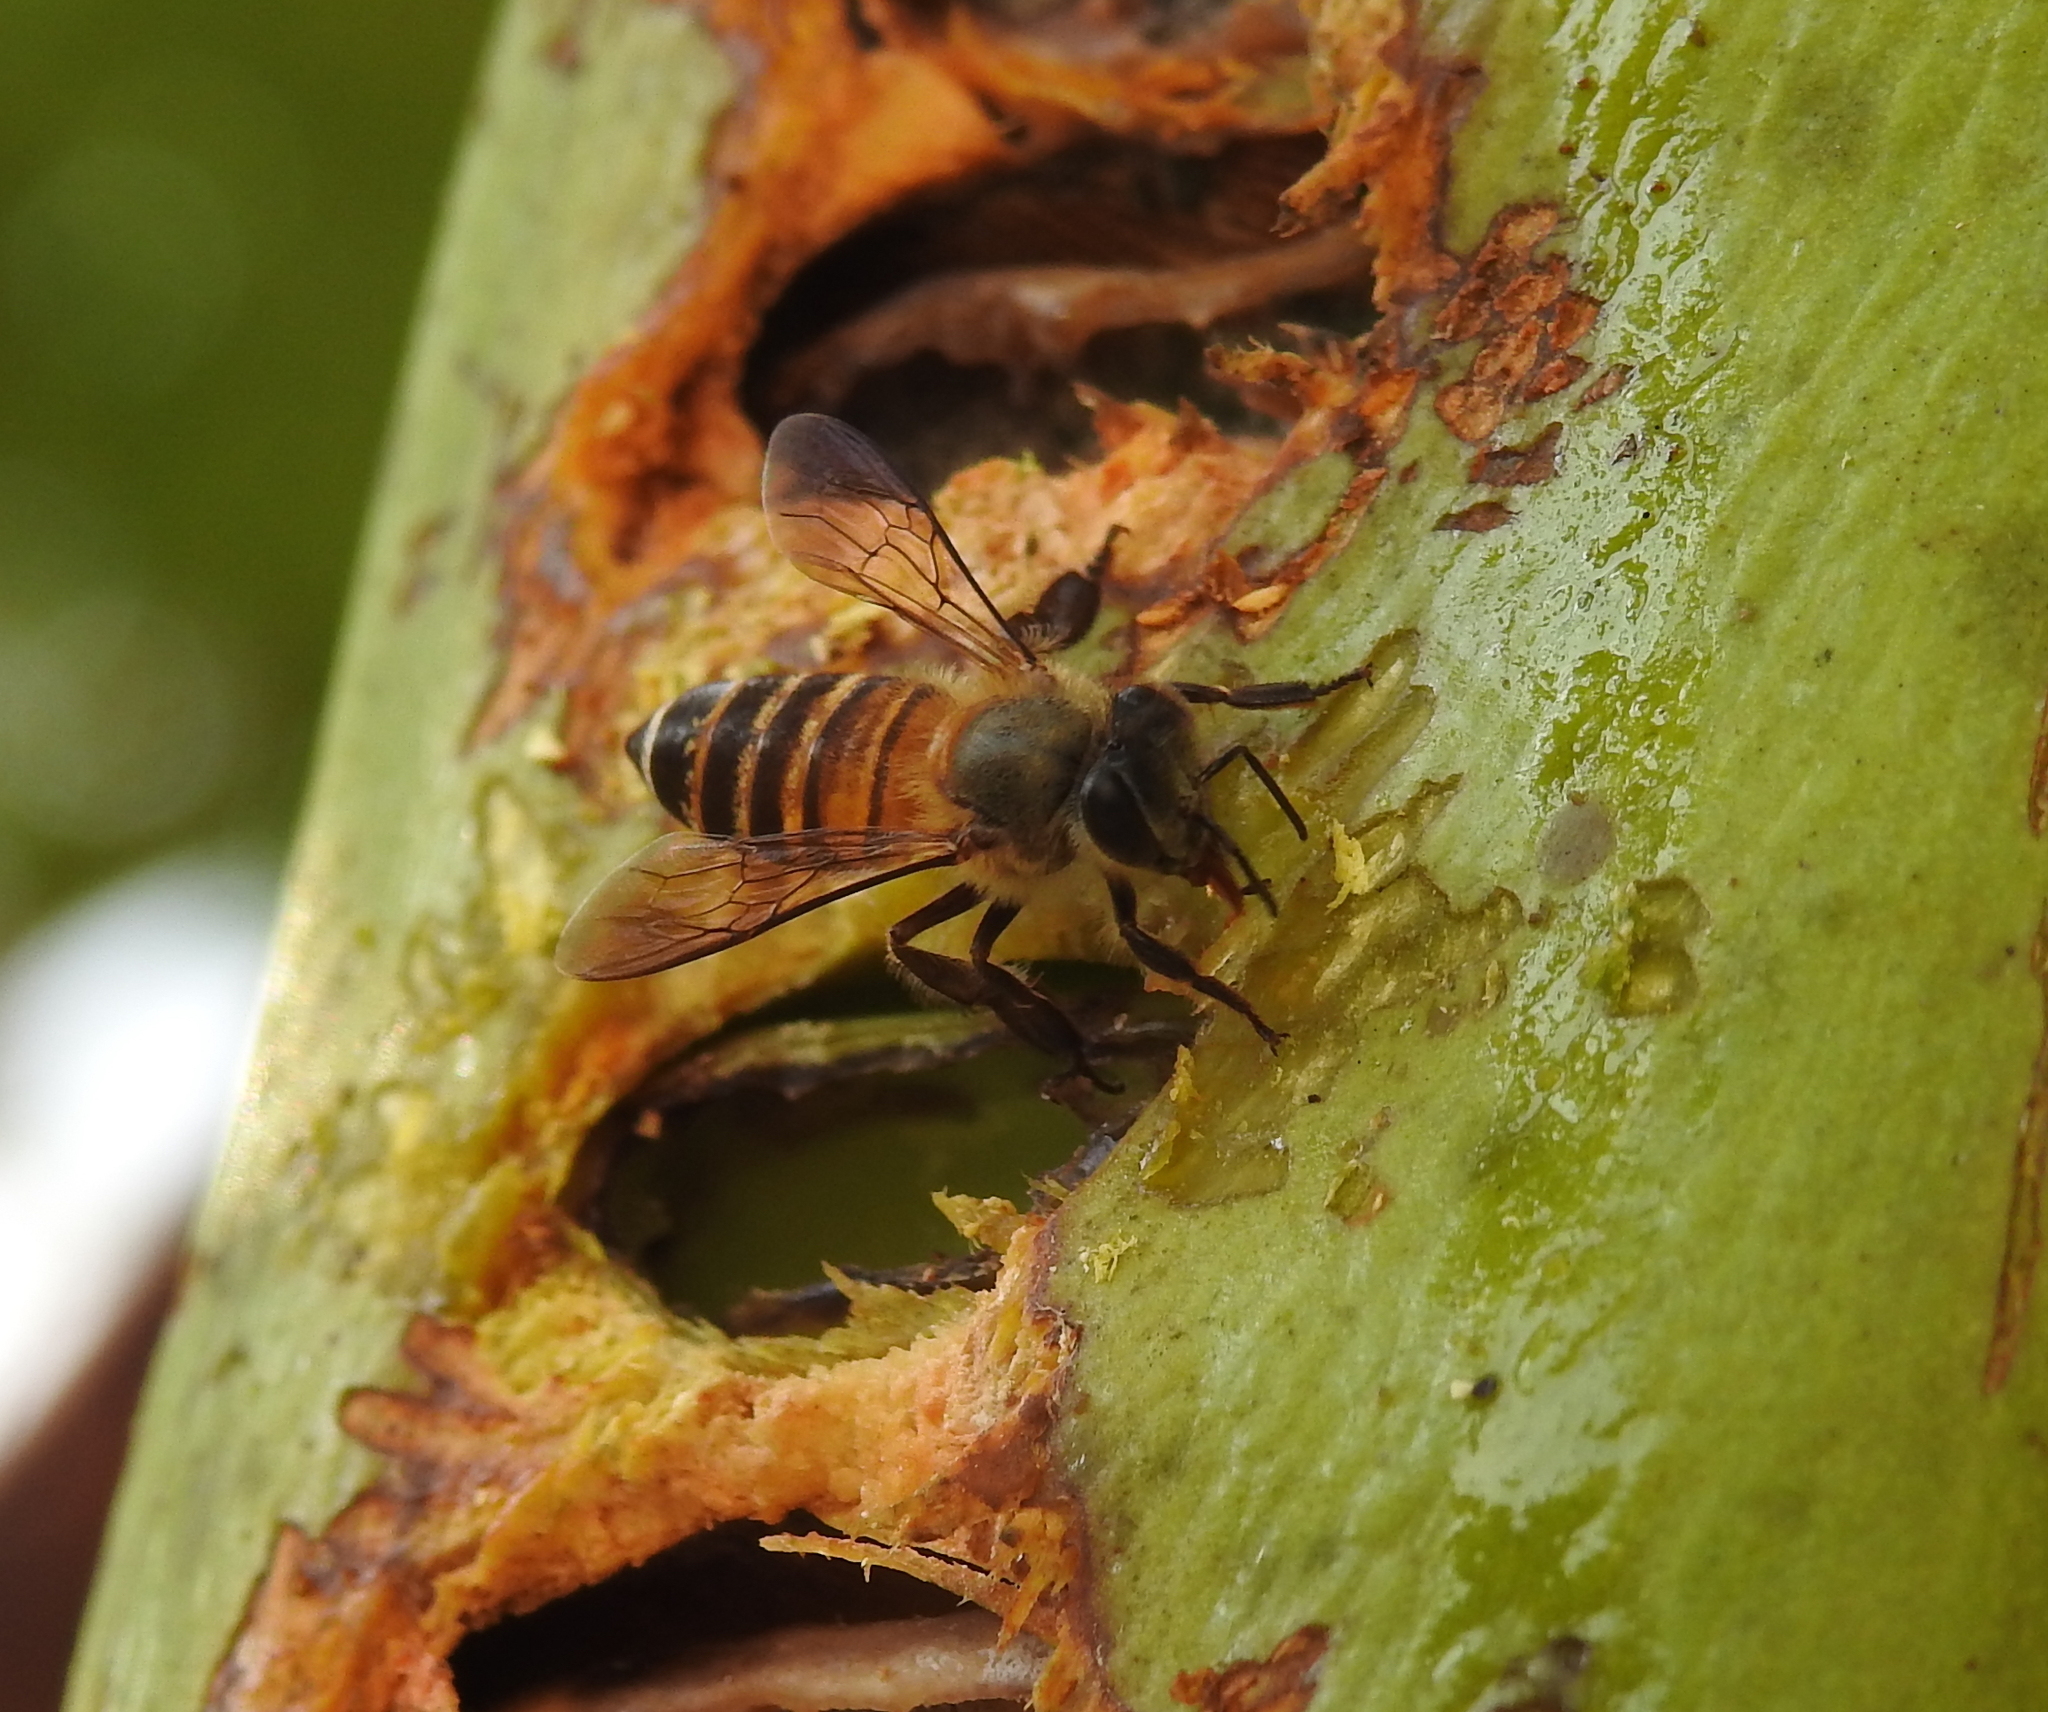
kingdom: Animalia
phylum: Arthropoda
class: Insecta
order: Hymenoptera
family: Apidae
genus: Apis
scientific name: Apis cerana
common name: Honey bee
